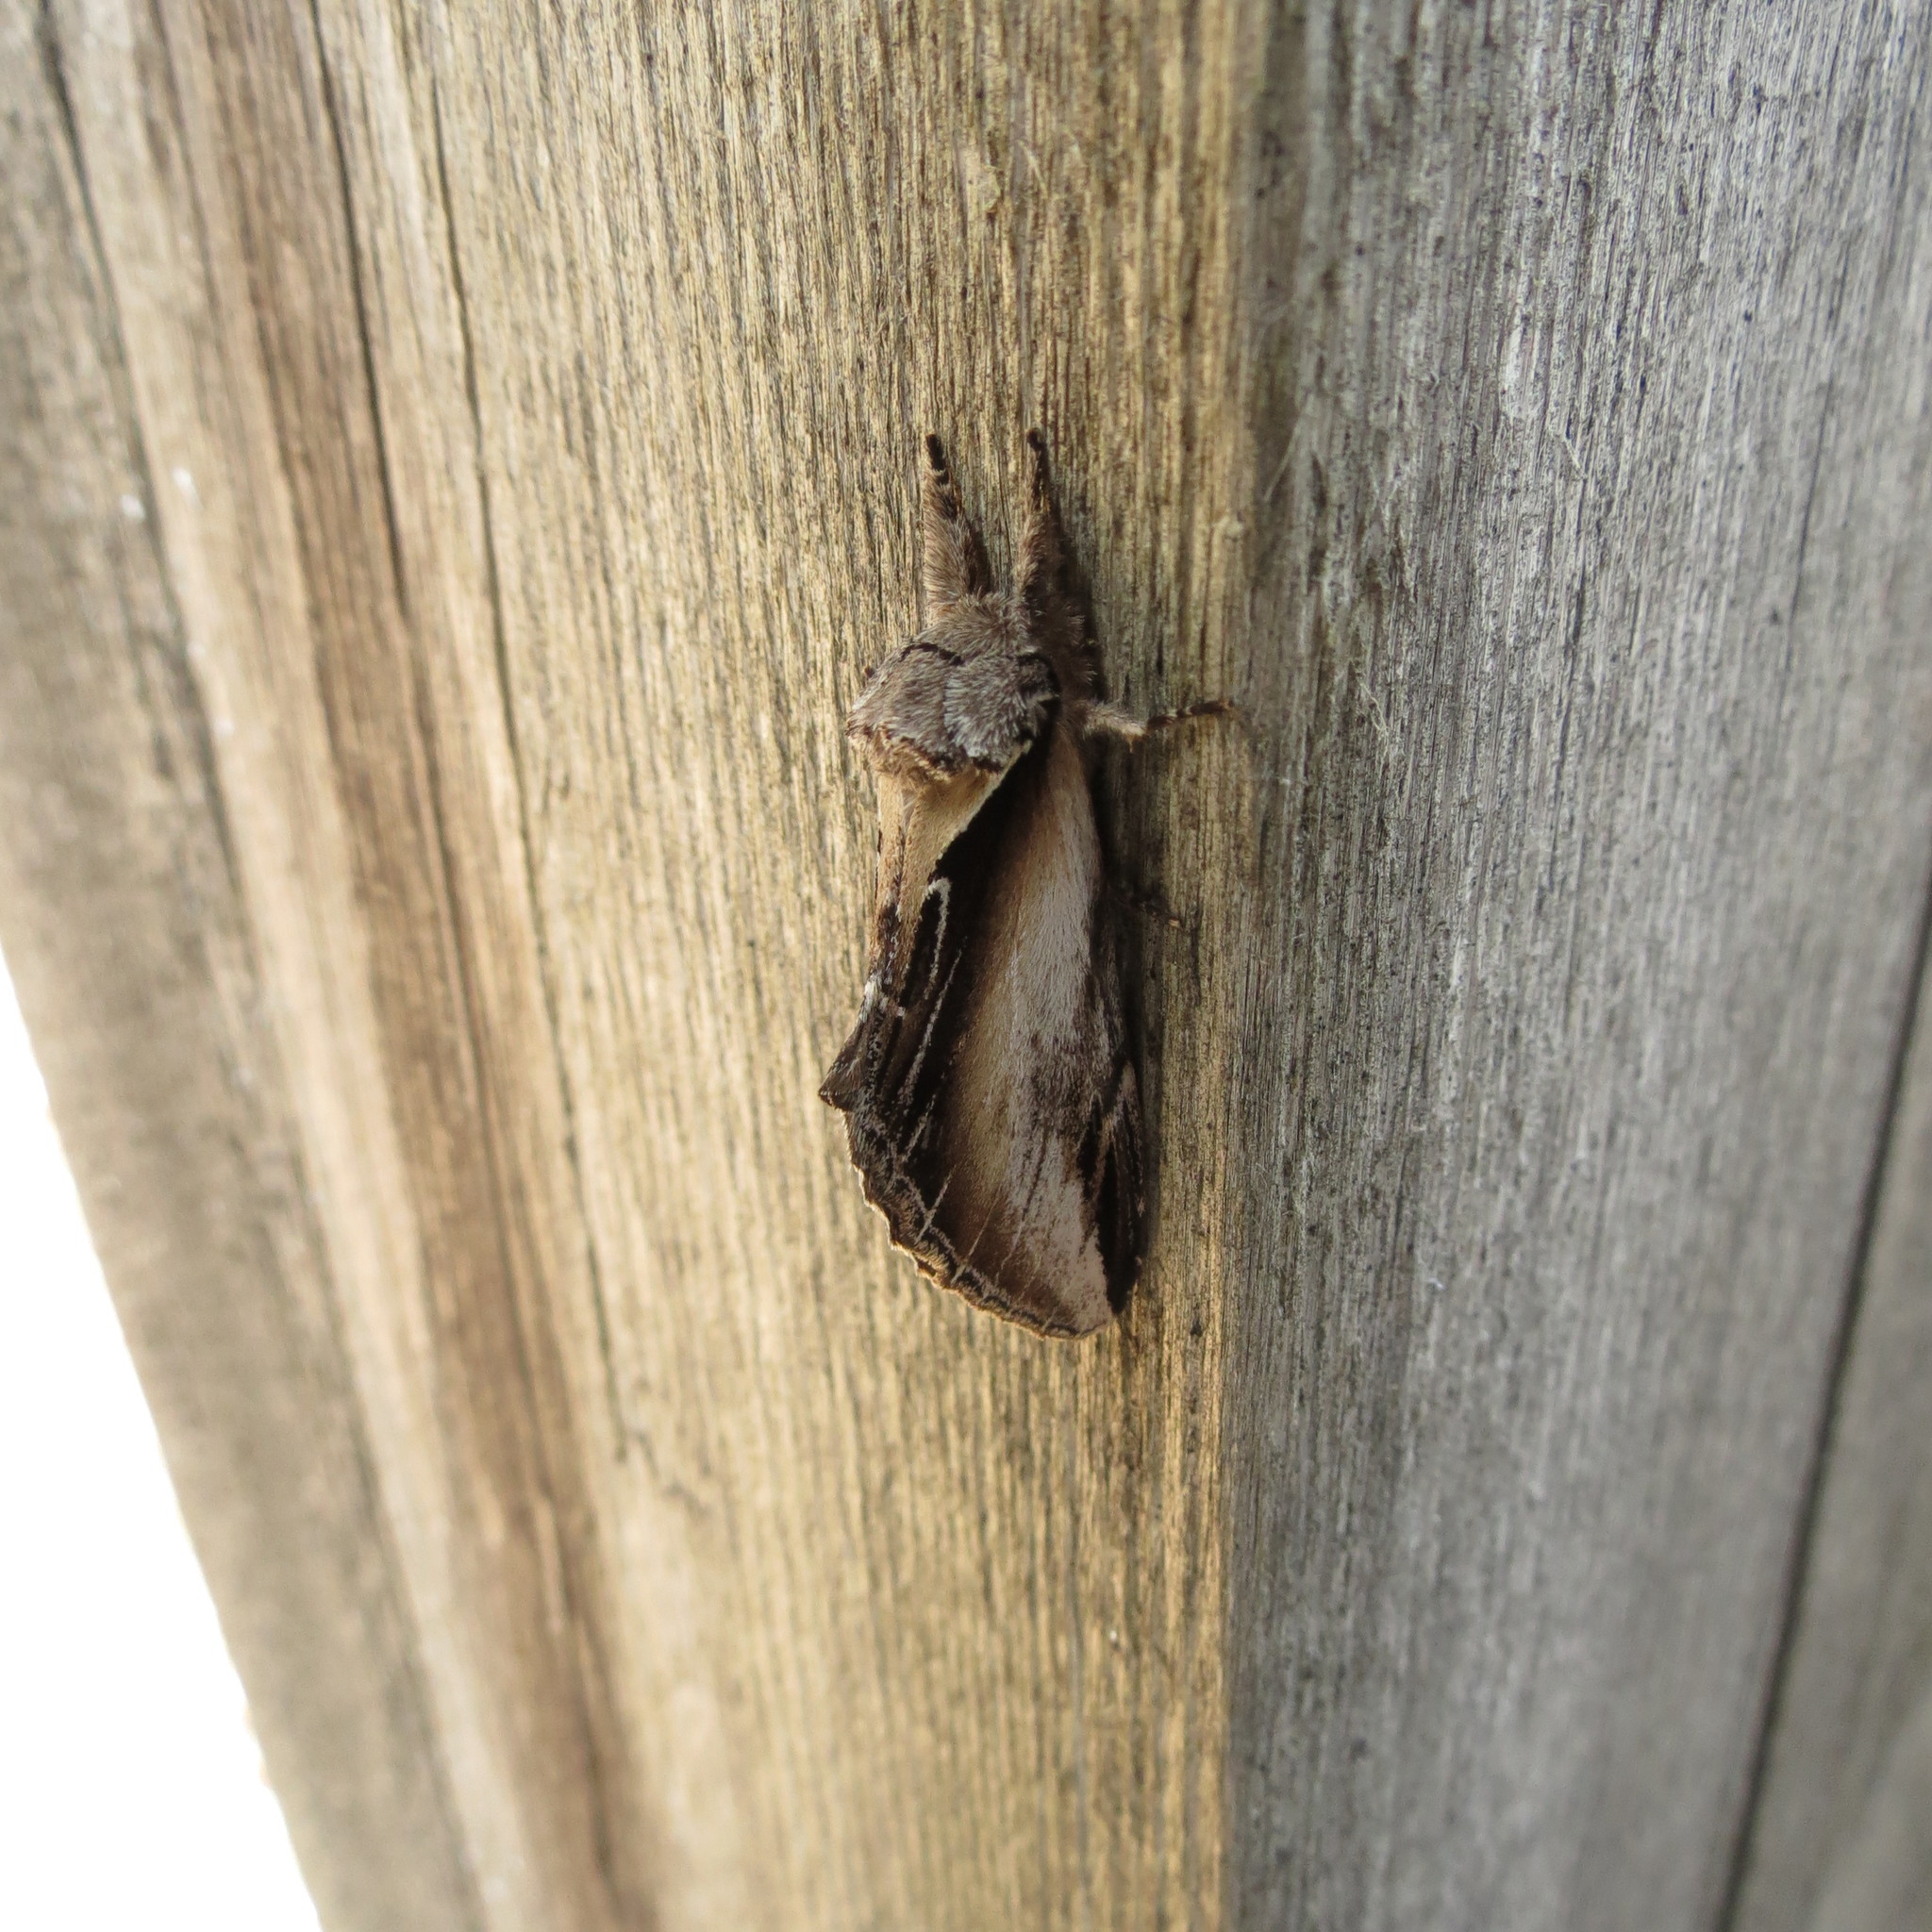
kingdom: Animalia
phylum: Arthropoda
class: Insecta
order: Lepidoptera
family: Notodontidae
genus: Pheosia
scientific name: Pheosia rimosa
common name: Black-rimmed prominent
